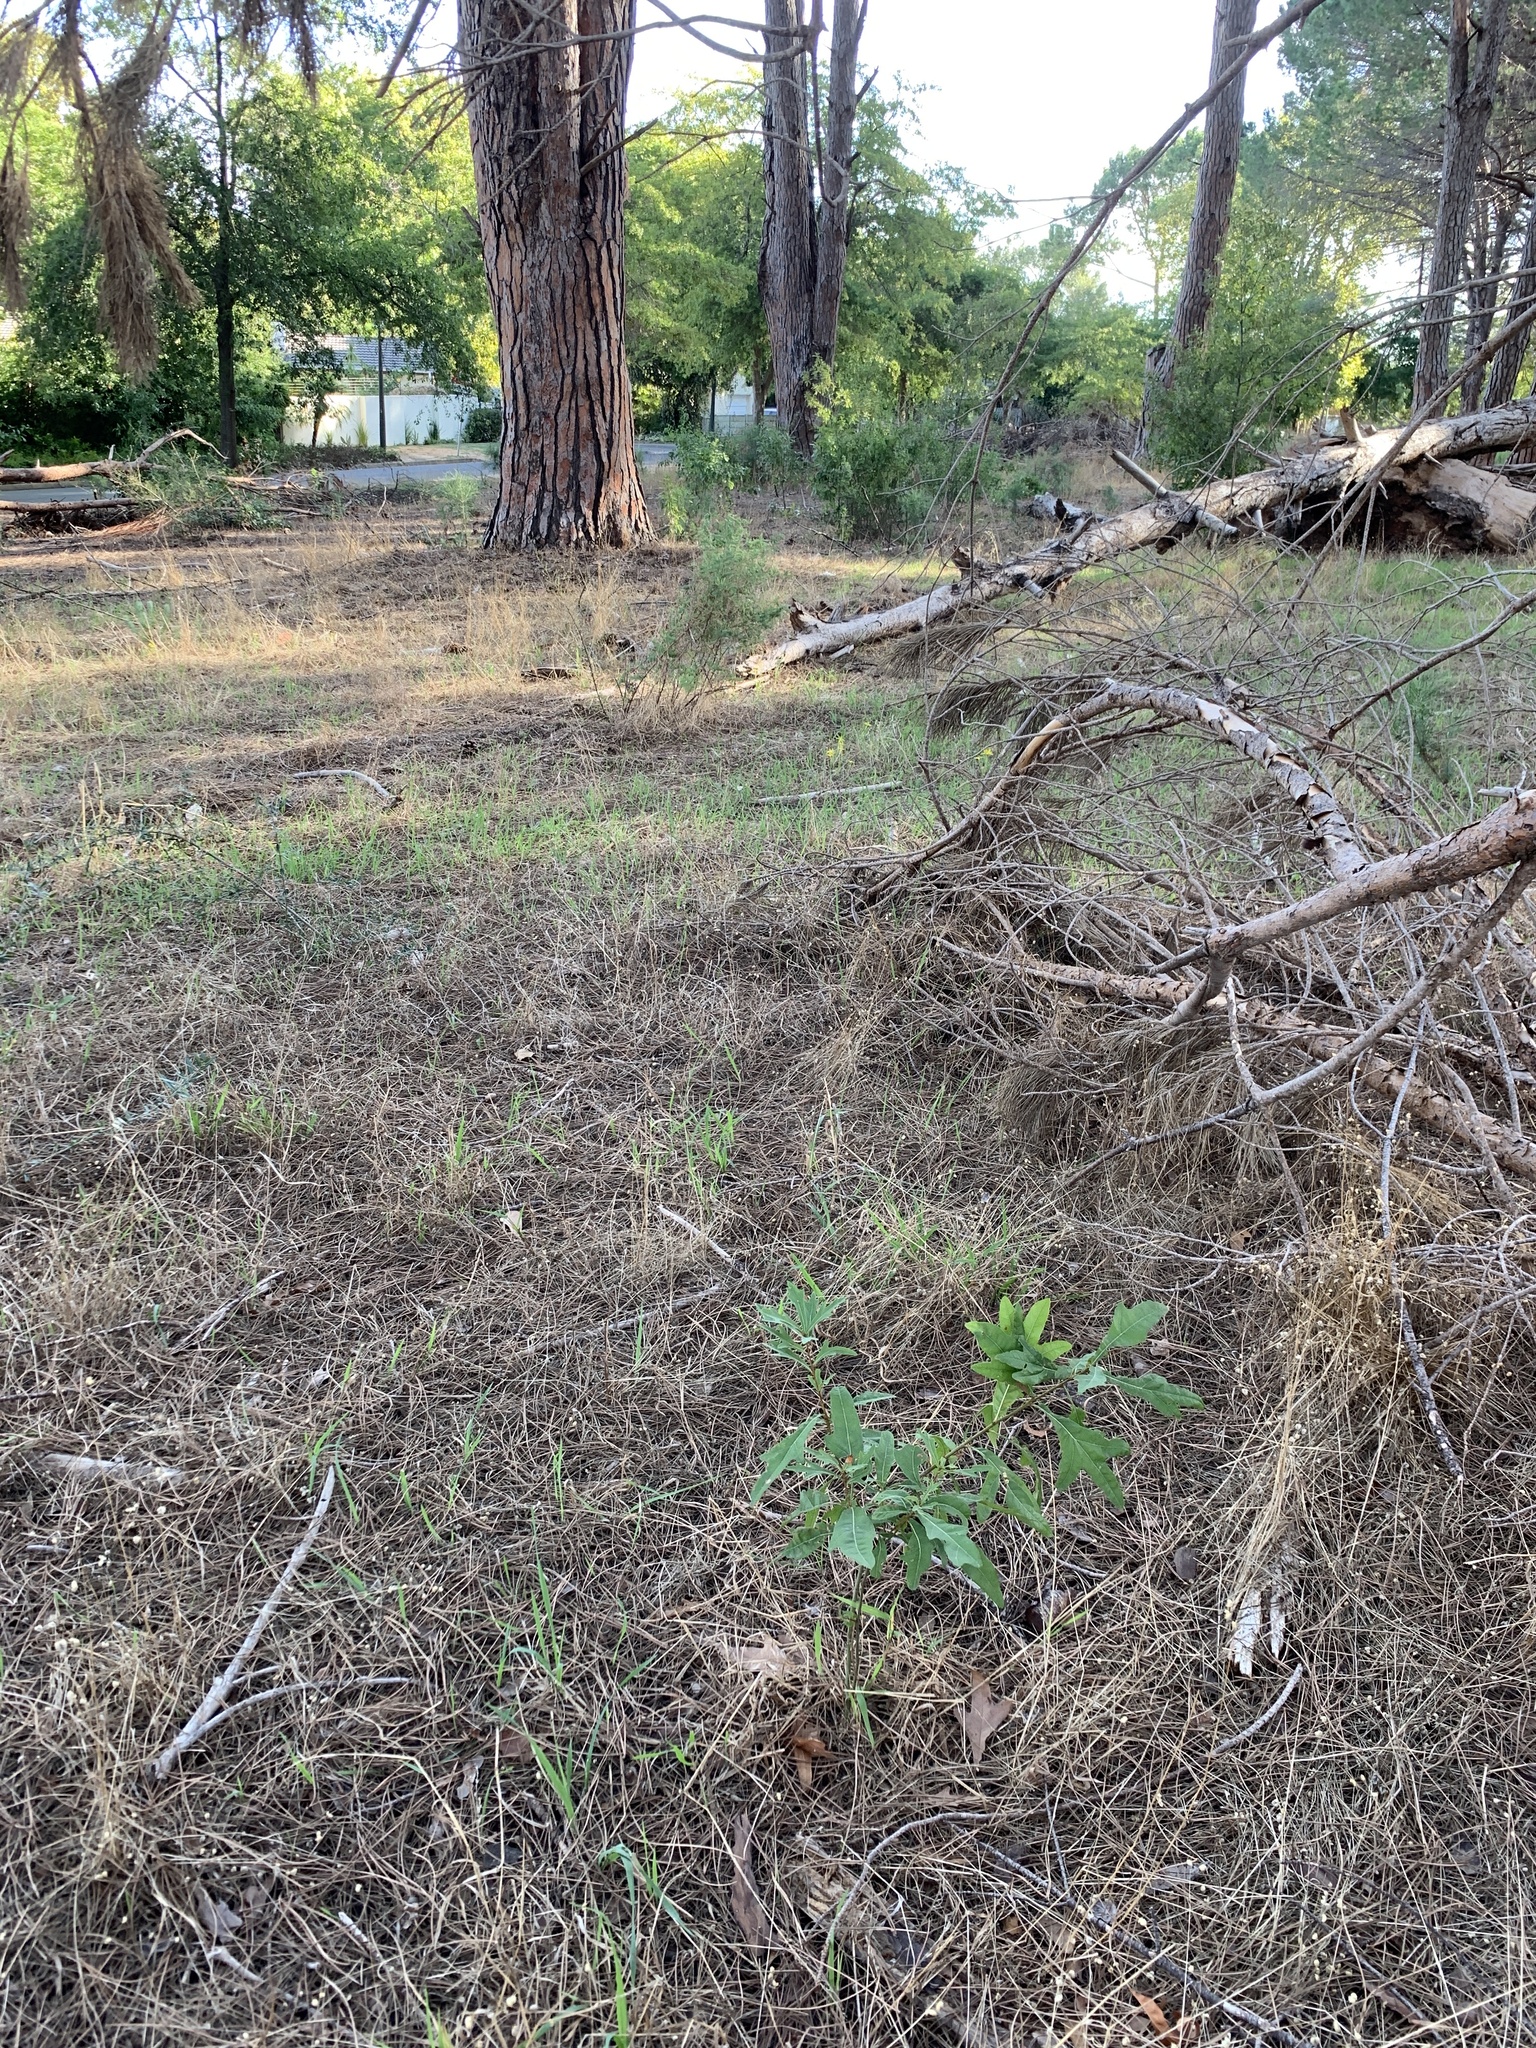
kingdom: Plantae
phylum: Tracheophyta
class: Magnoliopsida
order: Fagales
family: Fagaceae
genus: Quercus
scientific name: Quercus nigra
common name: Water oak
